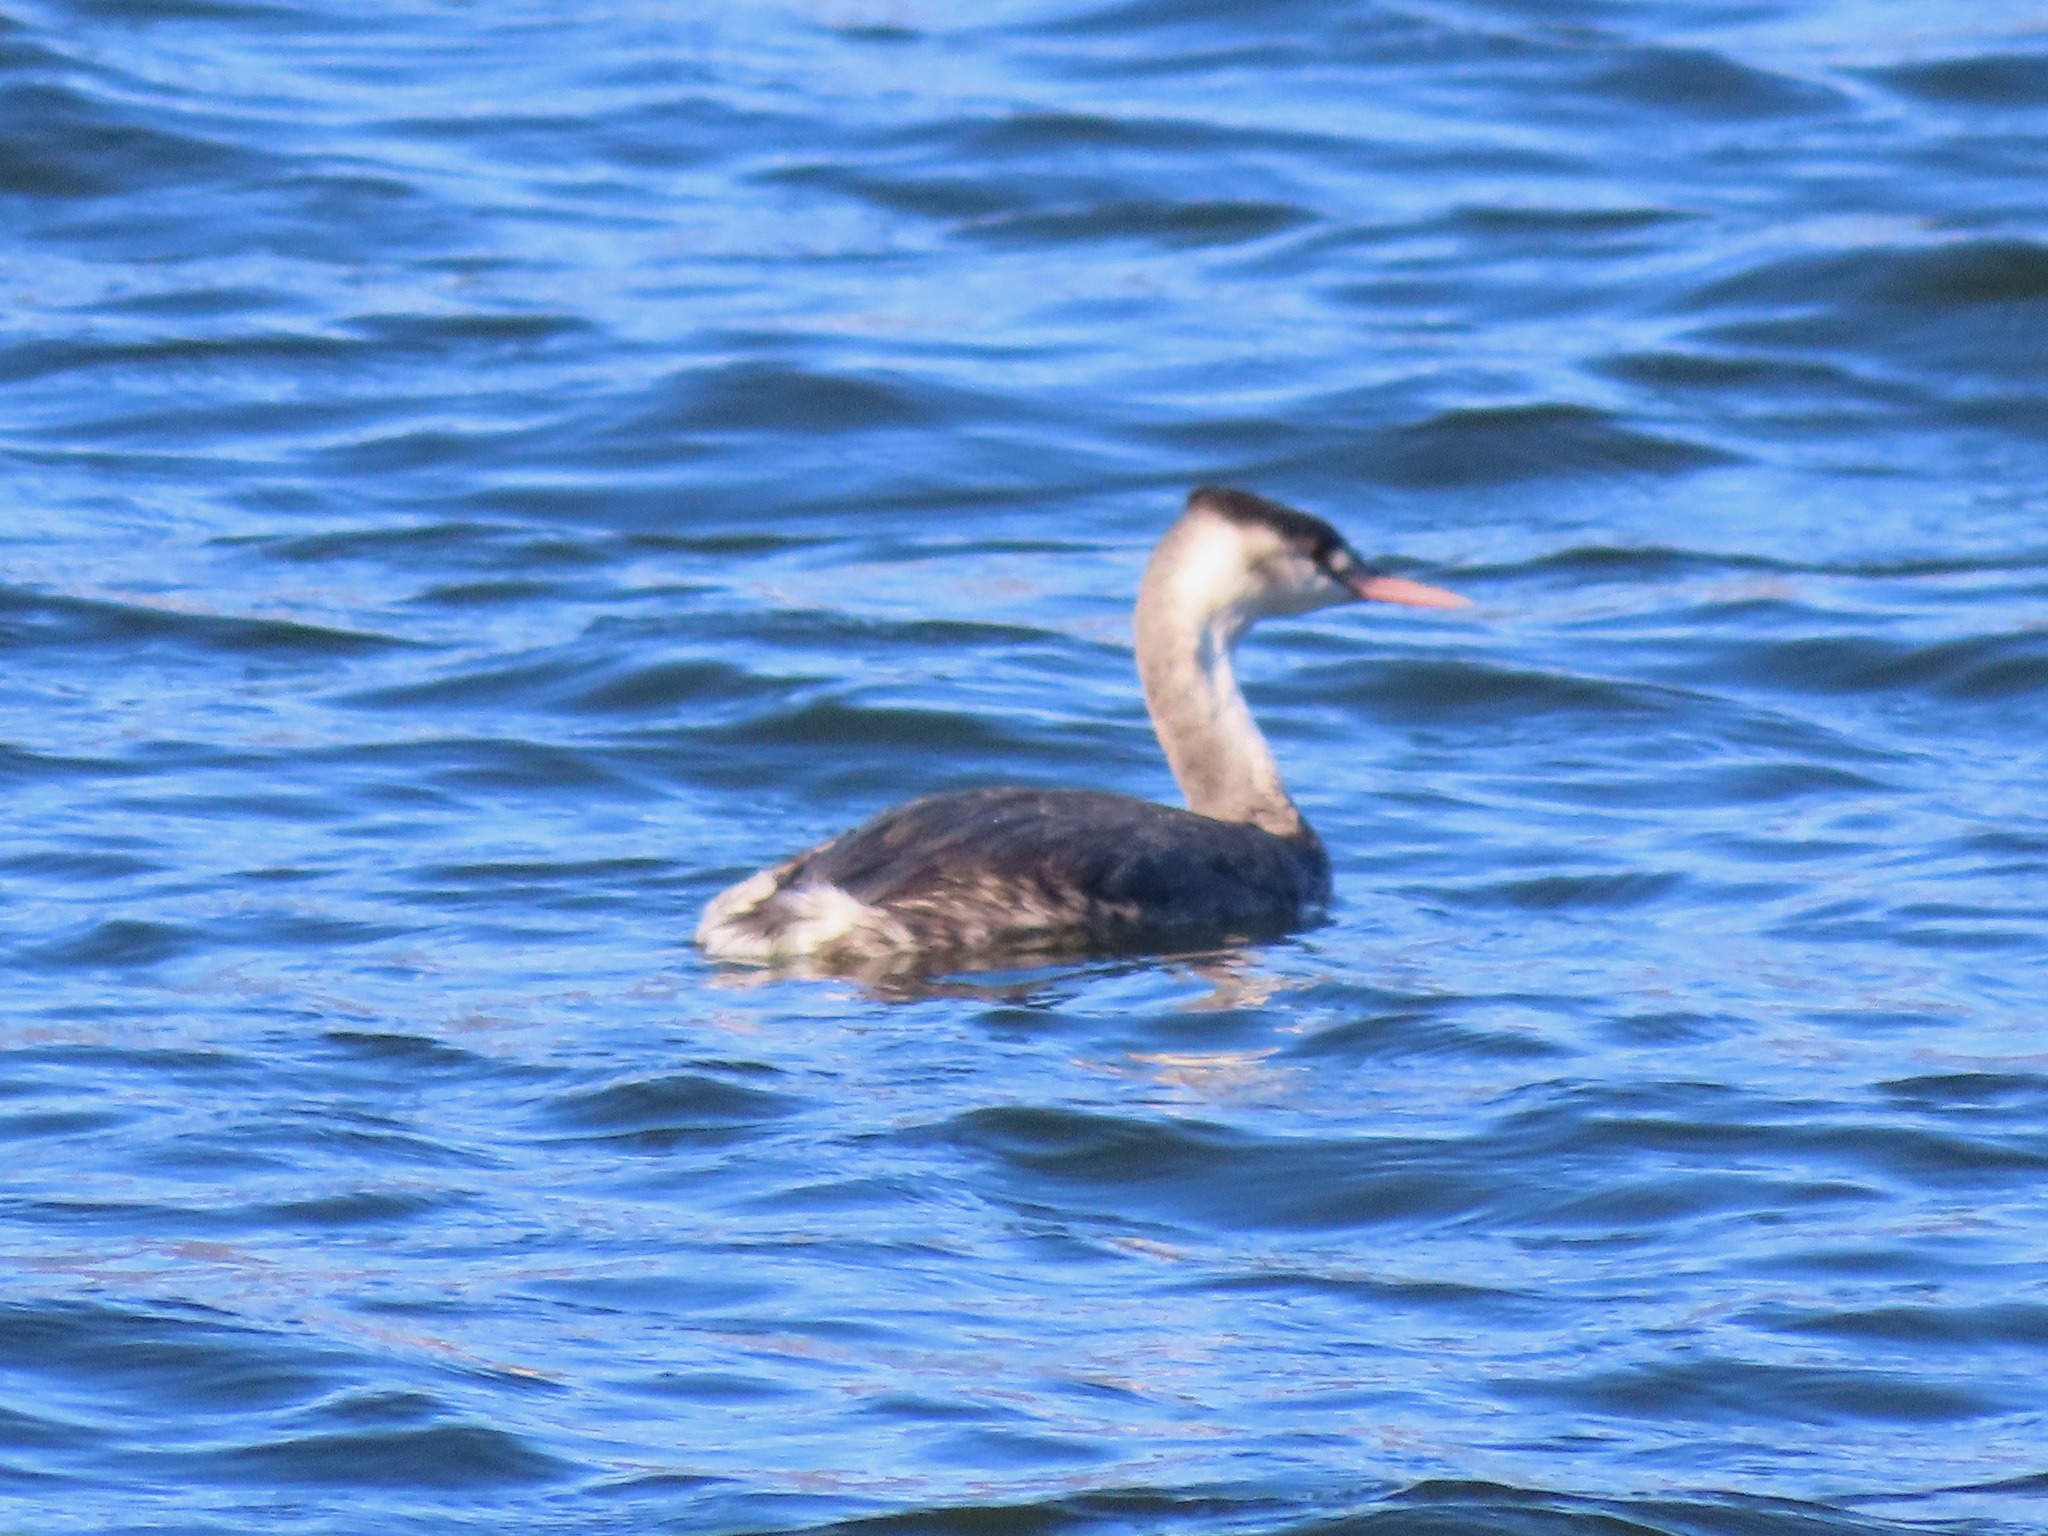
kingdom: Animalia
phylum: Chordata
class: Aves
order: Podicipediformes
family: Podicipedidae
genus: Podiceps
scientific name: Podiceps cristatus
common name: Great crested grebe
